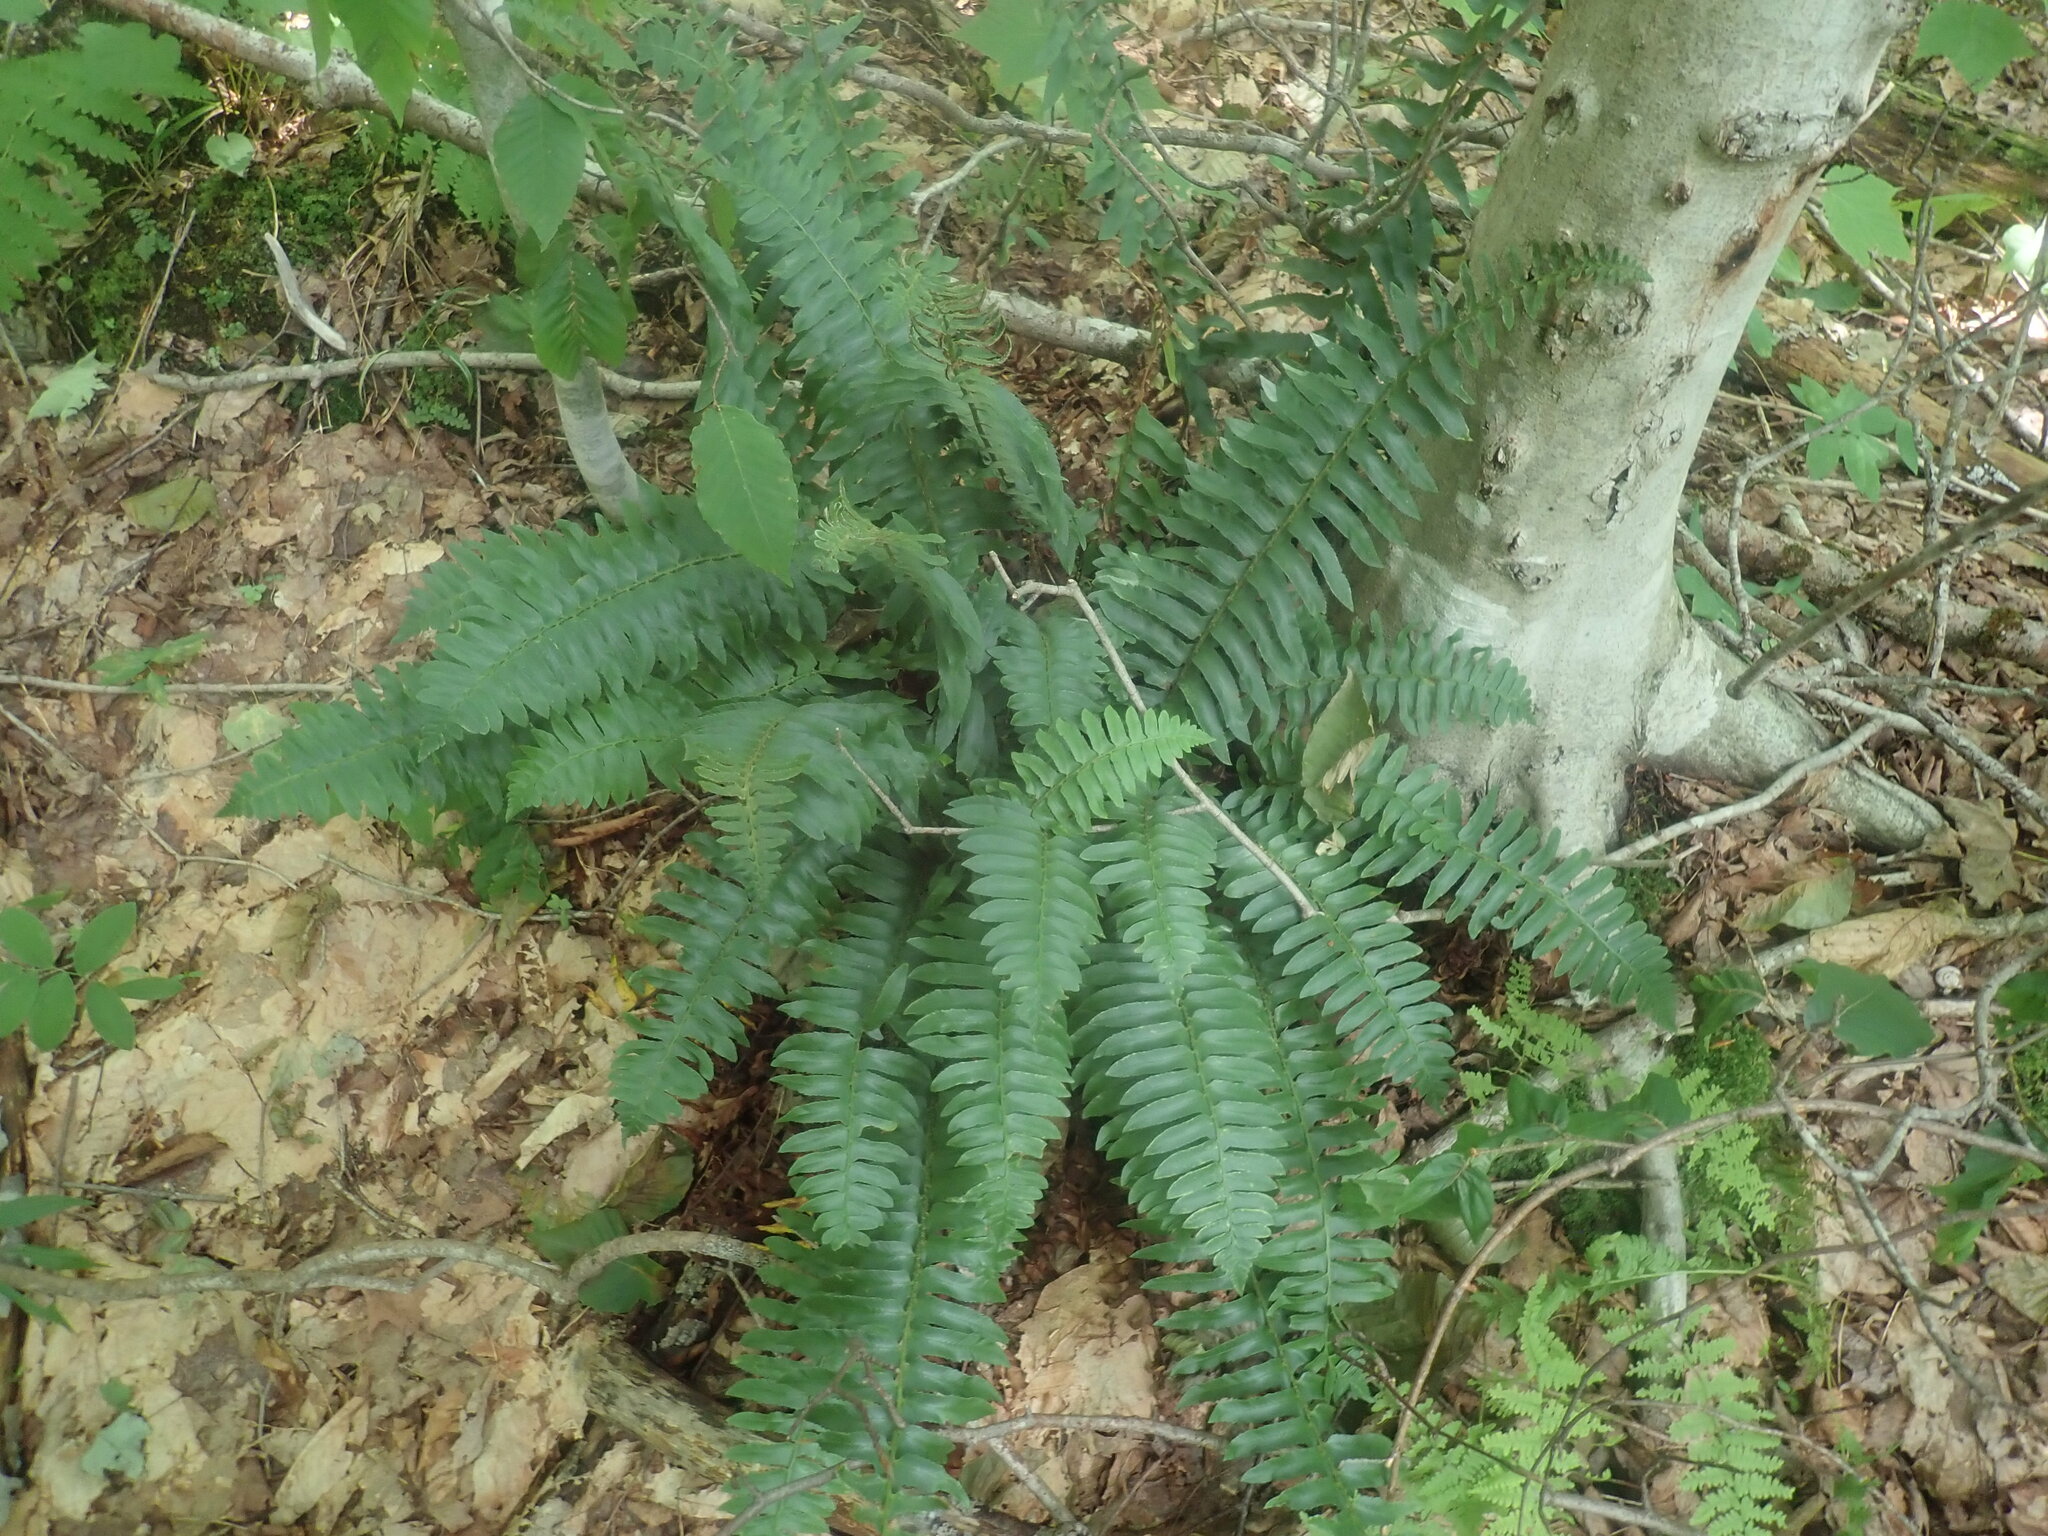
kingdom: Plantae
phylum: Tracheophyta
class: Polypodiopsida
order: Polypodiales
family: Dryopteridaceae
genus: Polystichum
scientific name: Polystichum acrostichoides
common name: Christmas fern
